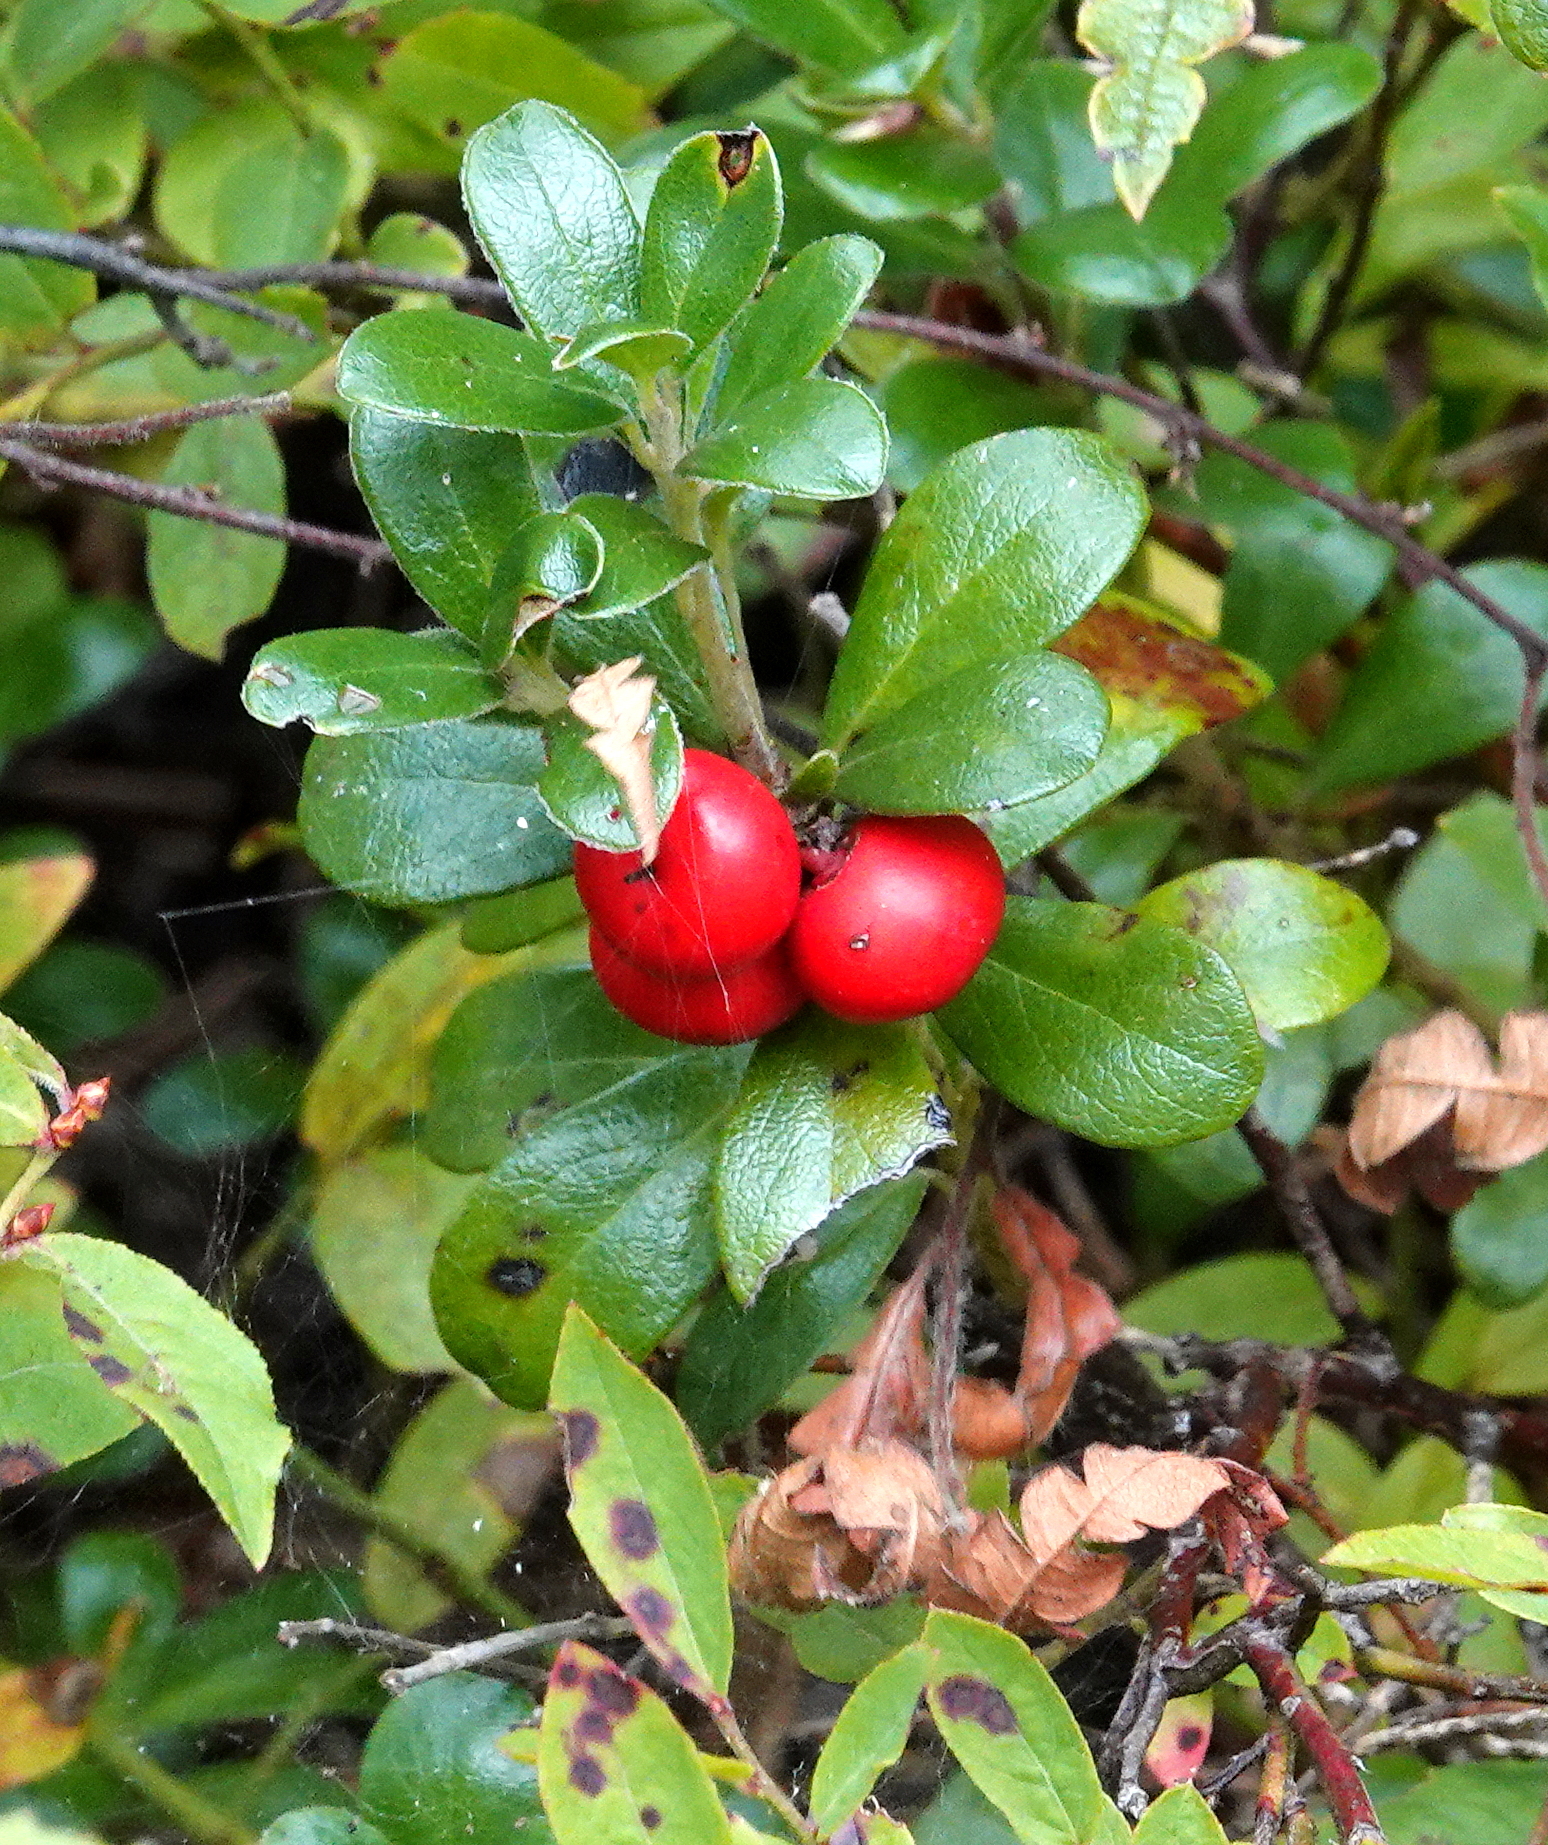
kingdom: Plantae
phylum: Tracheophyta
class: Magnoliopsida
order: Ericales
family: Ericaceae
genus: Arctostaphylos
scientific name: Arctostaphylos uva-ursi
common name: Bearberry
